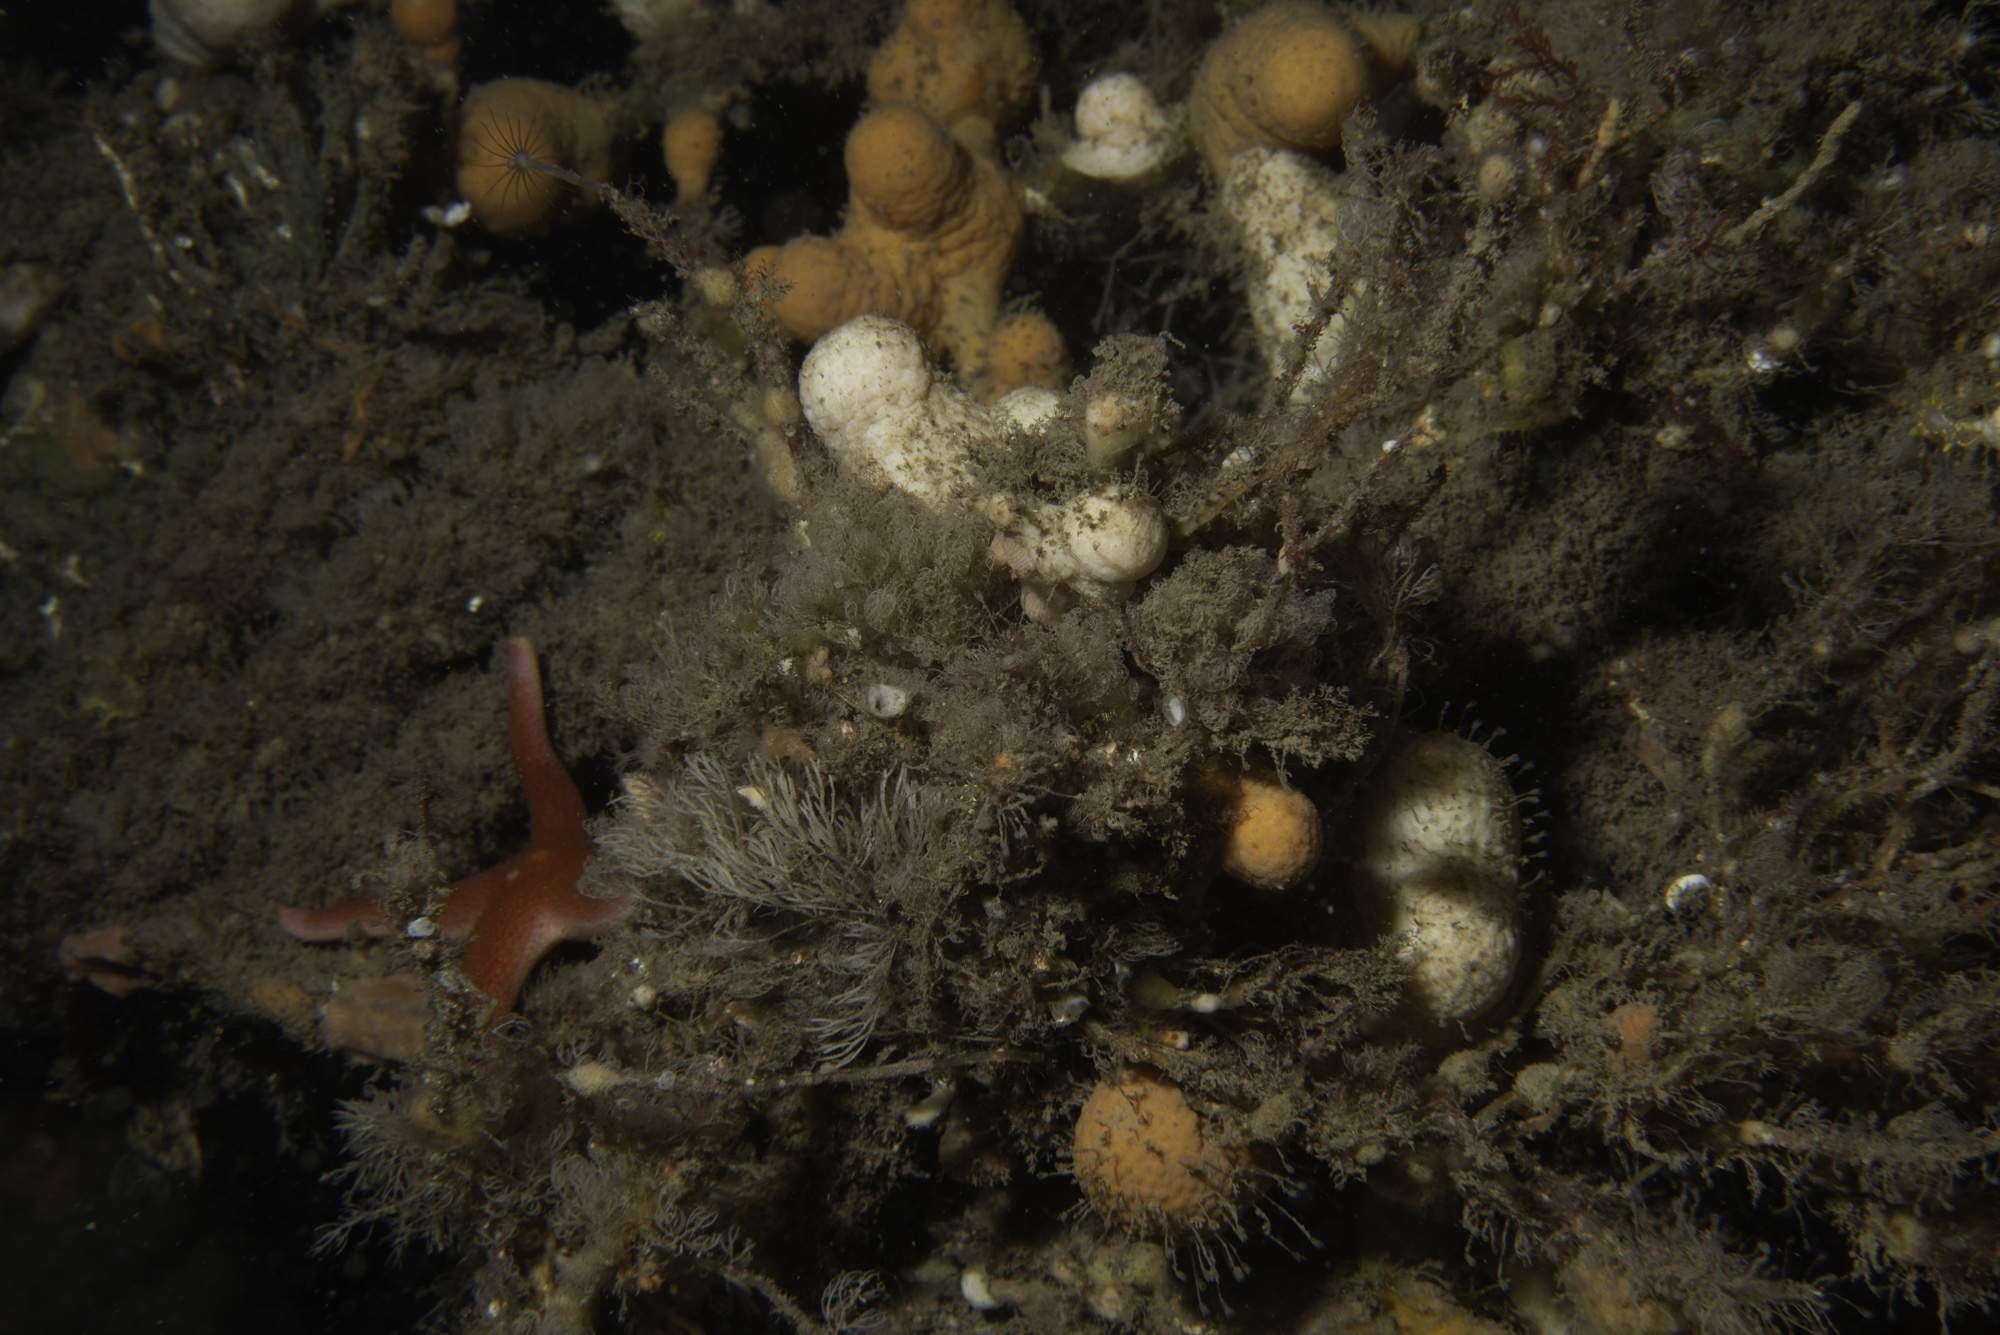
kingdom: Animalia
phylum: Echinodermata
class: Asteroidea
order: Spinulosida
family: Echinasteridae
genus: Henricia
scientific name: Henricia oculata
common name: Bloody henry starfish
